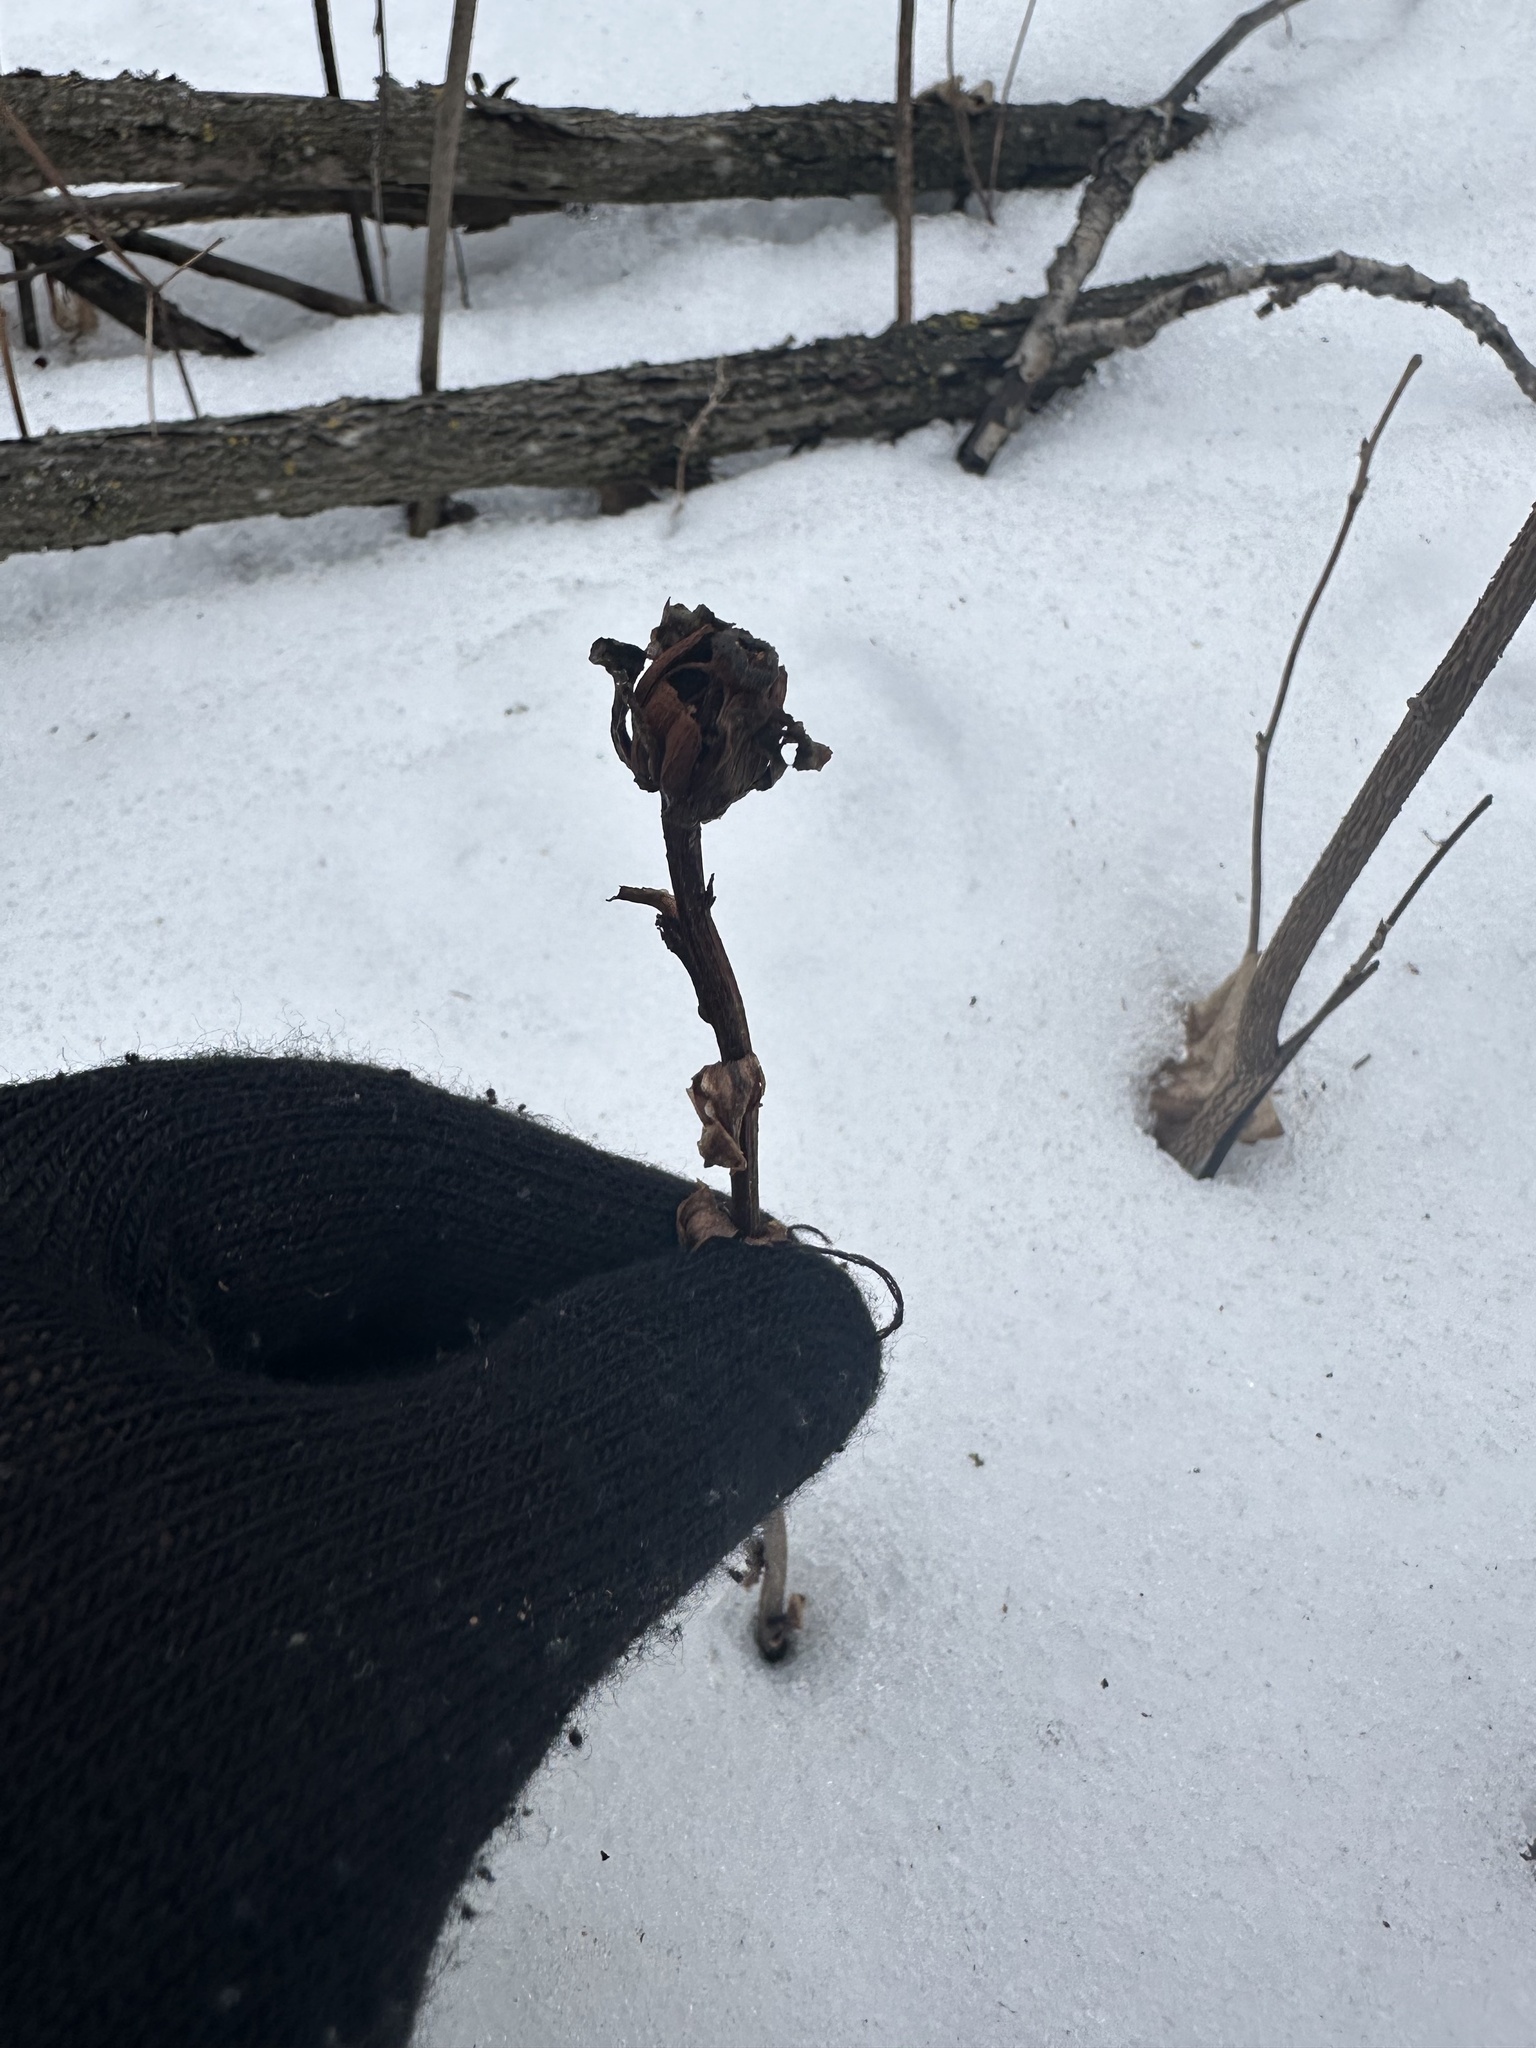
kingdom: Plantae
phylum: Tracheophyta
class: Magnoliopsida
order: Ericales
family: Ericaceae
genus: Monotropa
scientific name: Monotropa uniflora
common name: Convulsion root
